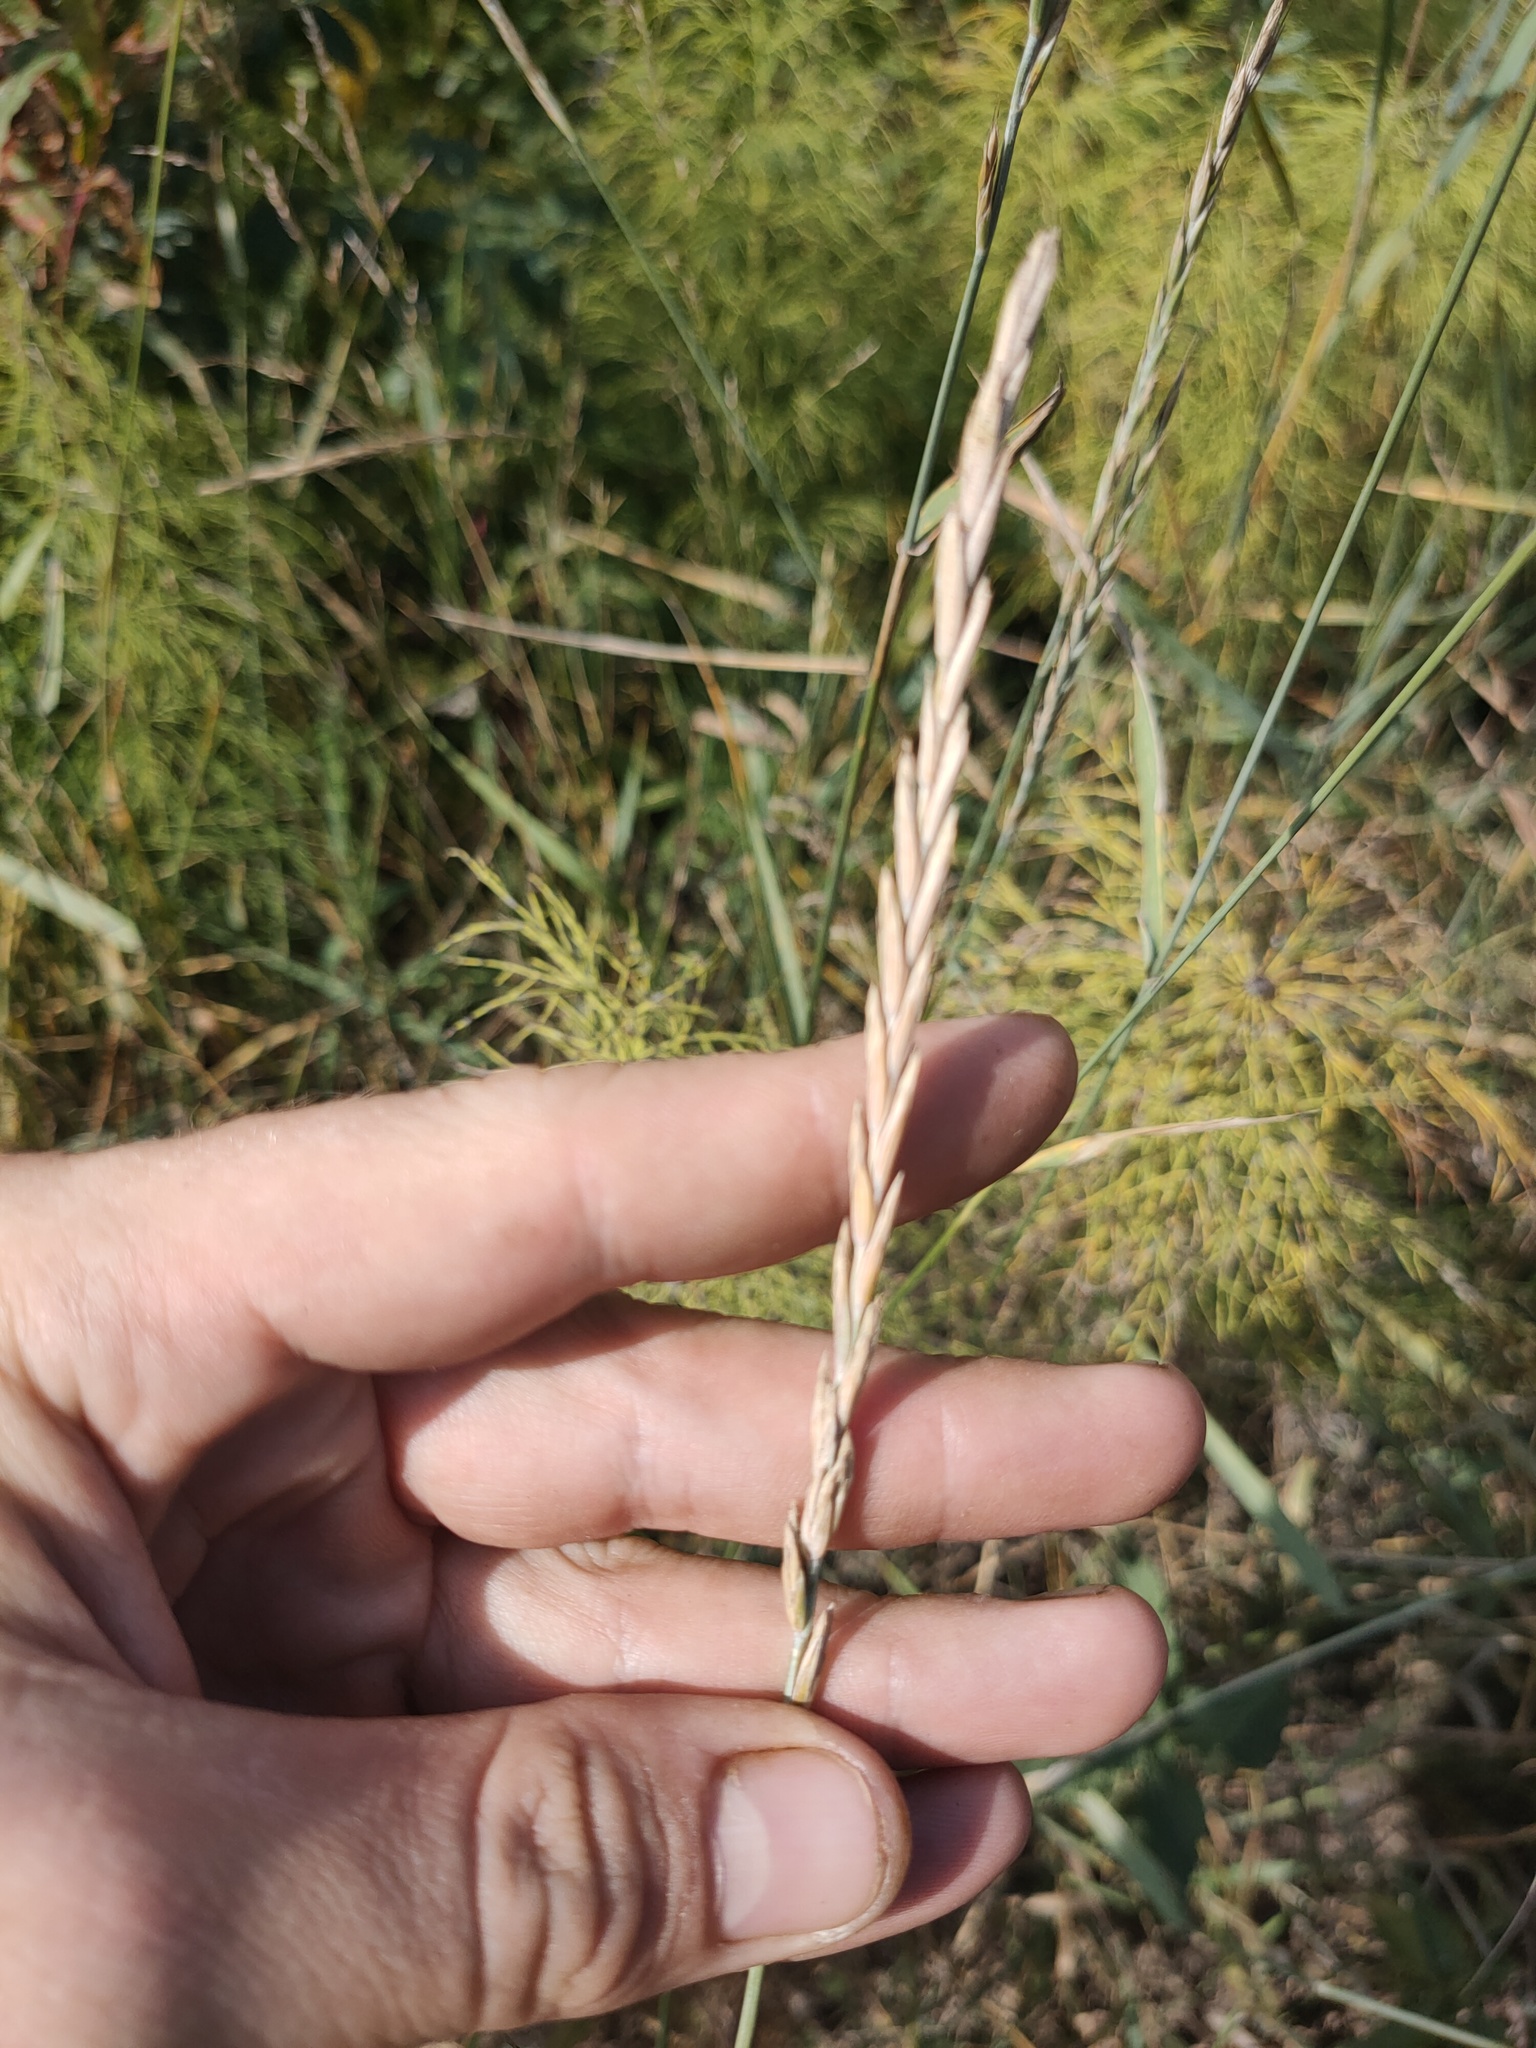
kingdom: Plantae
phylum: Tracheophyta
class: Liliopsida
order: Poales
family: Poaceae
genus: Elymus
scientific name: Elymus repens
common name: Quackgrass
